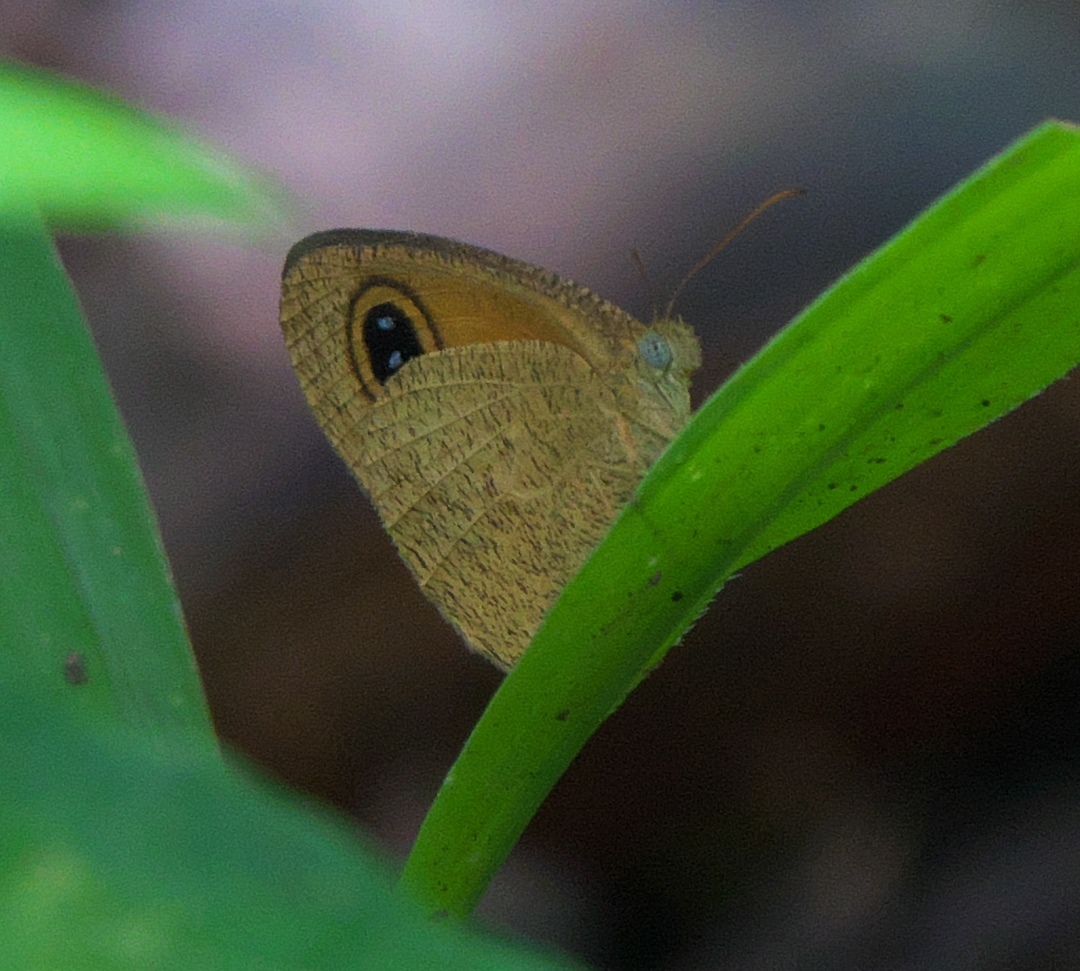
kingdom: Animalia
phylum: Arthropoda
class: Insecta
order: Lepidoptera
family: Nymphalidae
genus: Ypthima
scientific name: Ypthima sesara
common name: Common fijian ringlet
